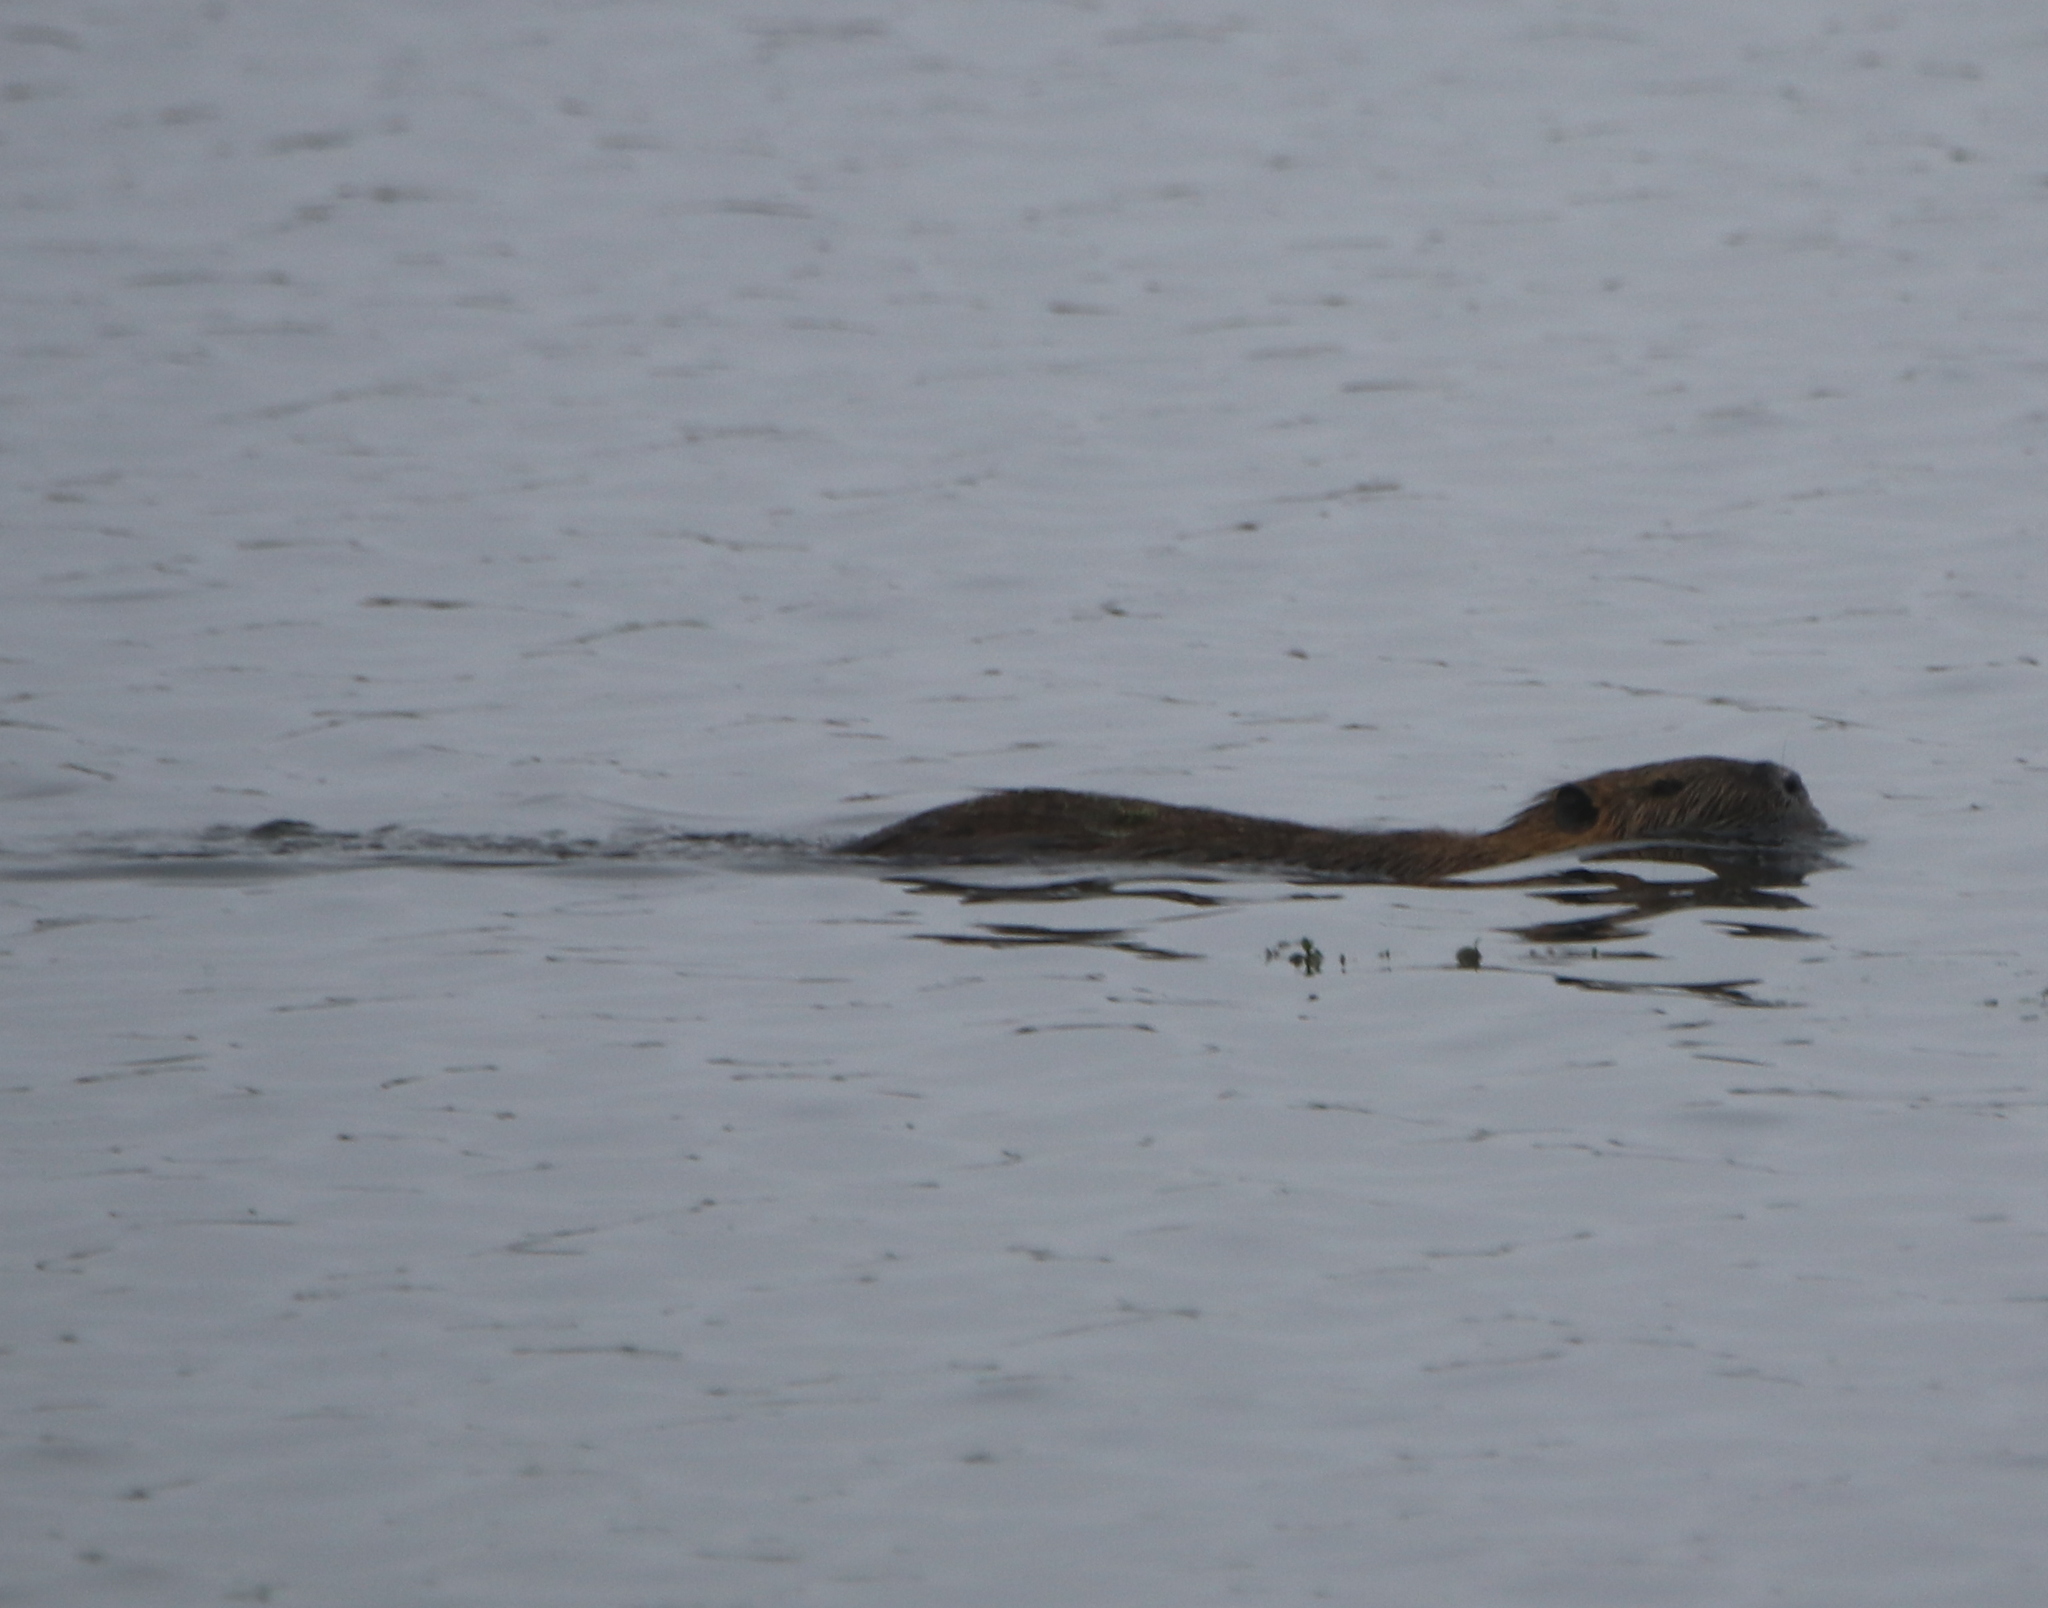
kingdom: Animalia
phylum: Chordata
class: Mammalia
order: Rodentia
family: Myocastoridae
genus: Myocastor
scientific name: Myocastor coypus
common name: Coypu
